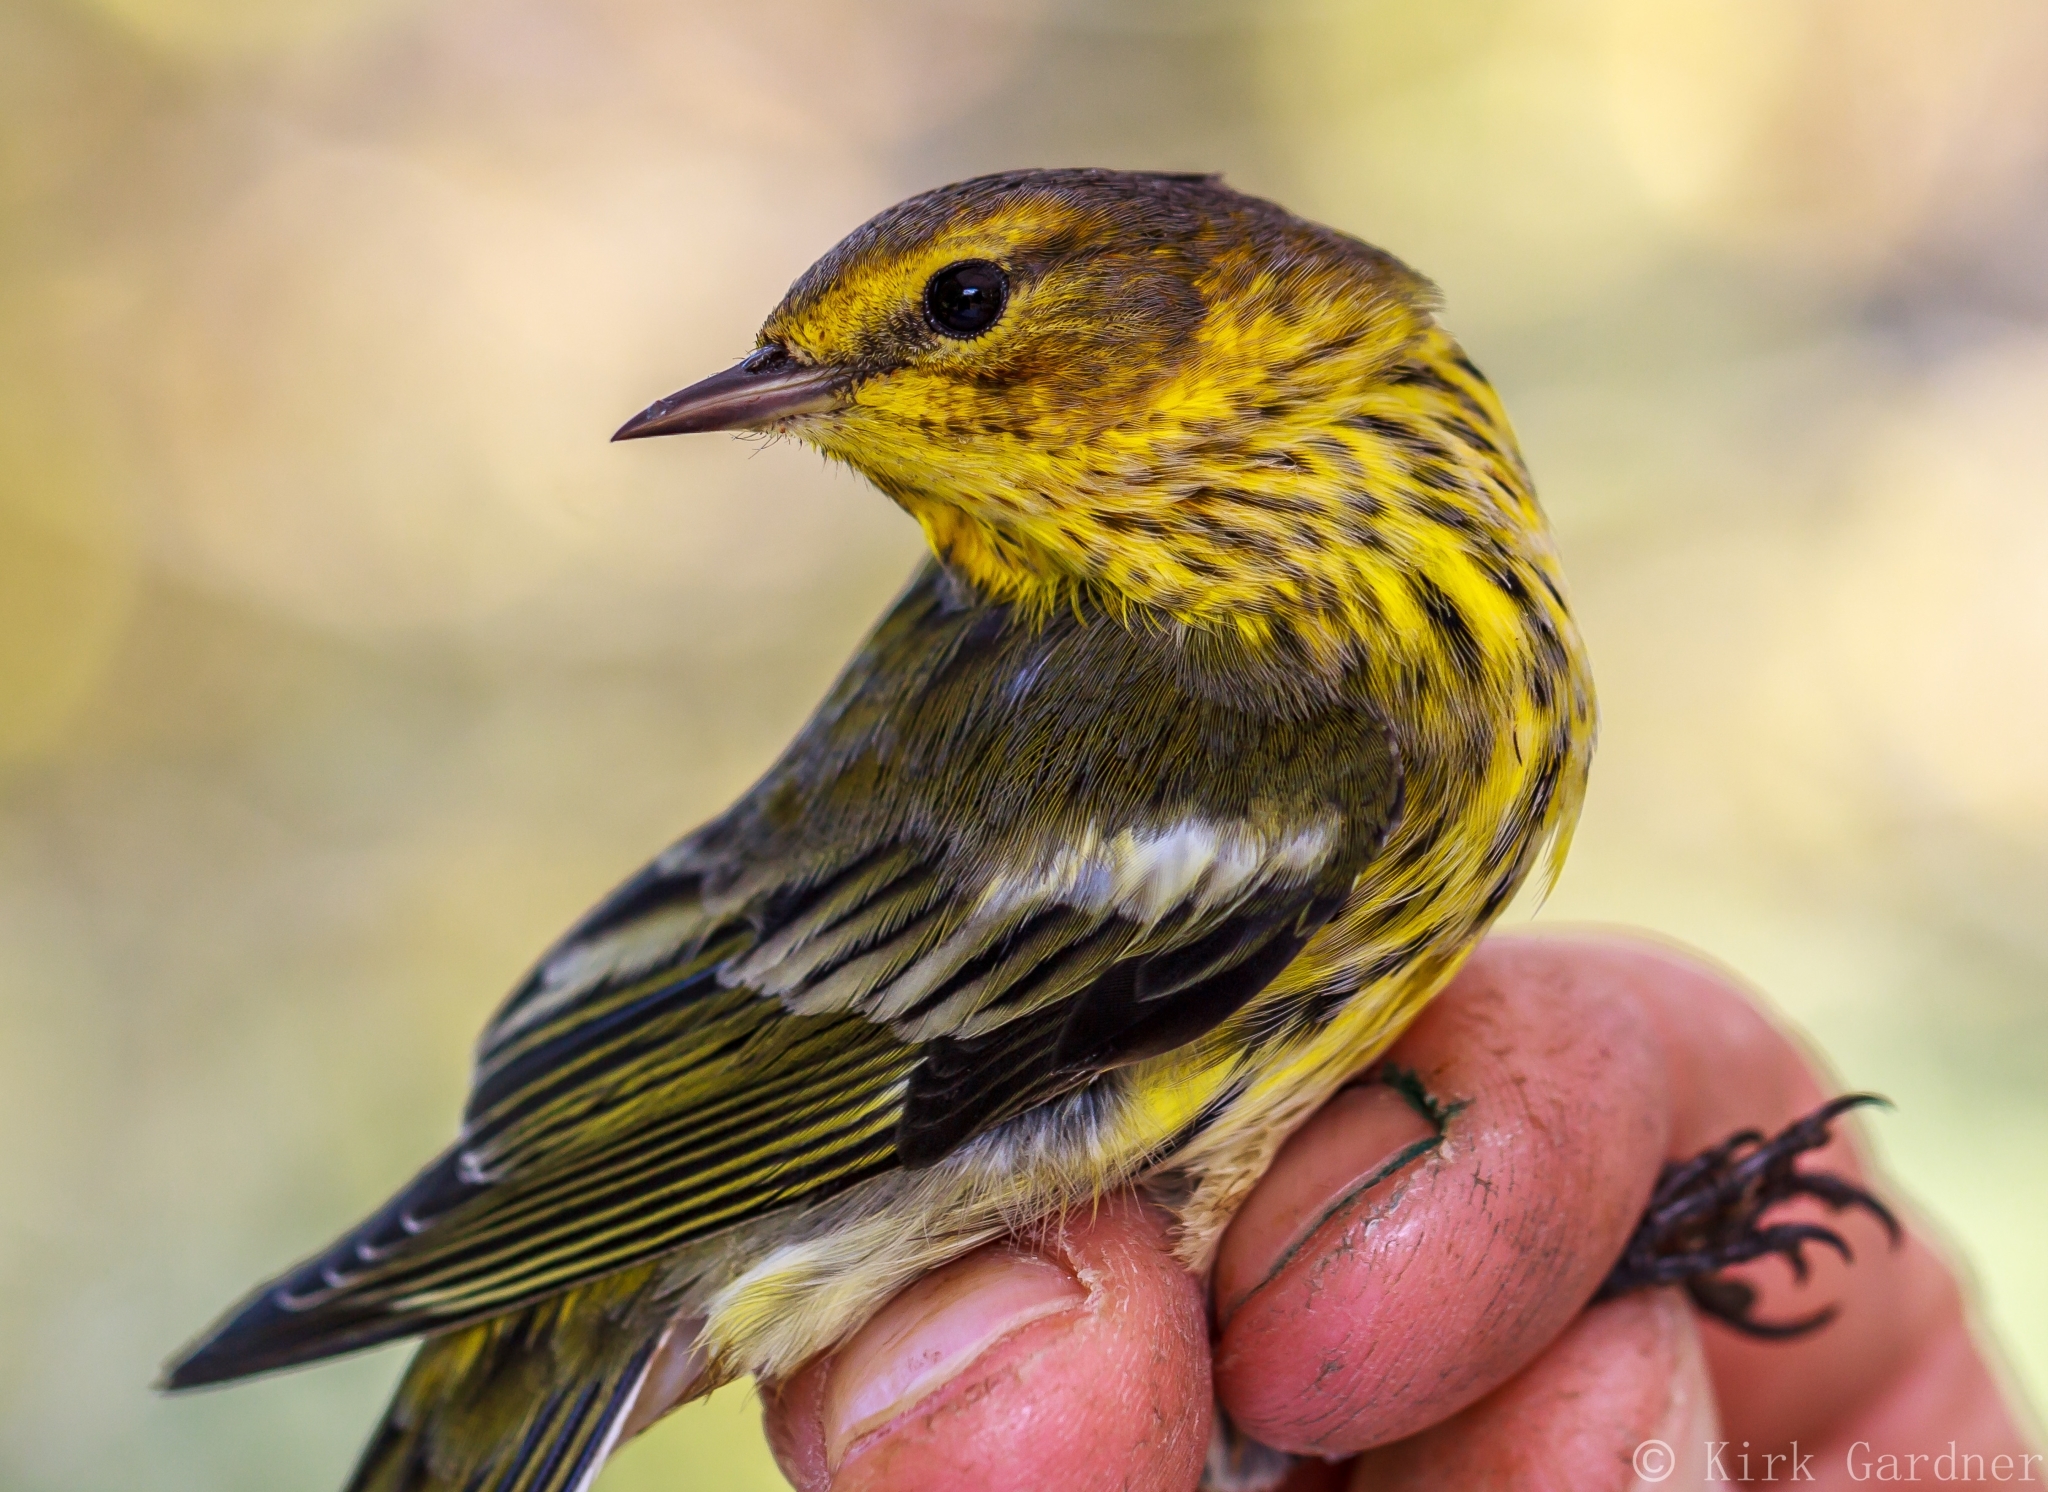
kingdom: Animalia
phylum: Chordata
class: Aves
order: Passeriformes
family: Parulidae
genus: Setophaga
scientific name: Setophaga tigrina
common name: Cape may warbler
